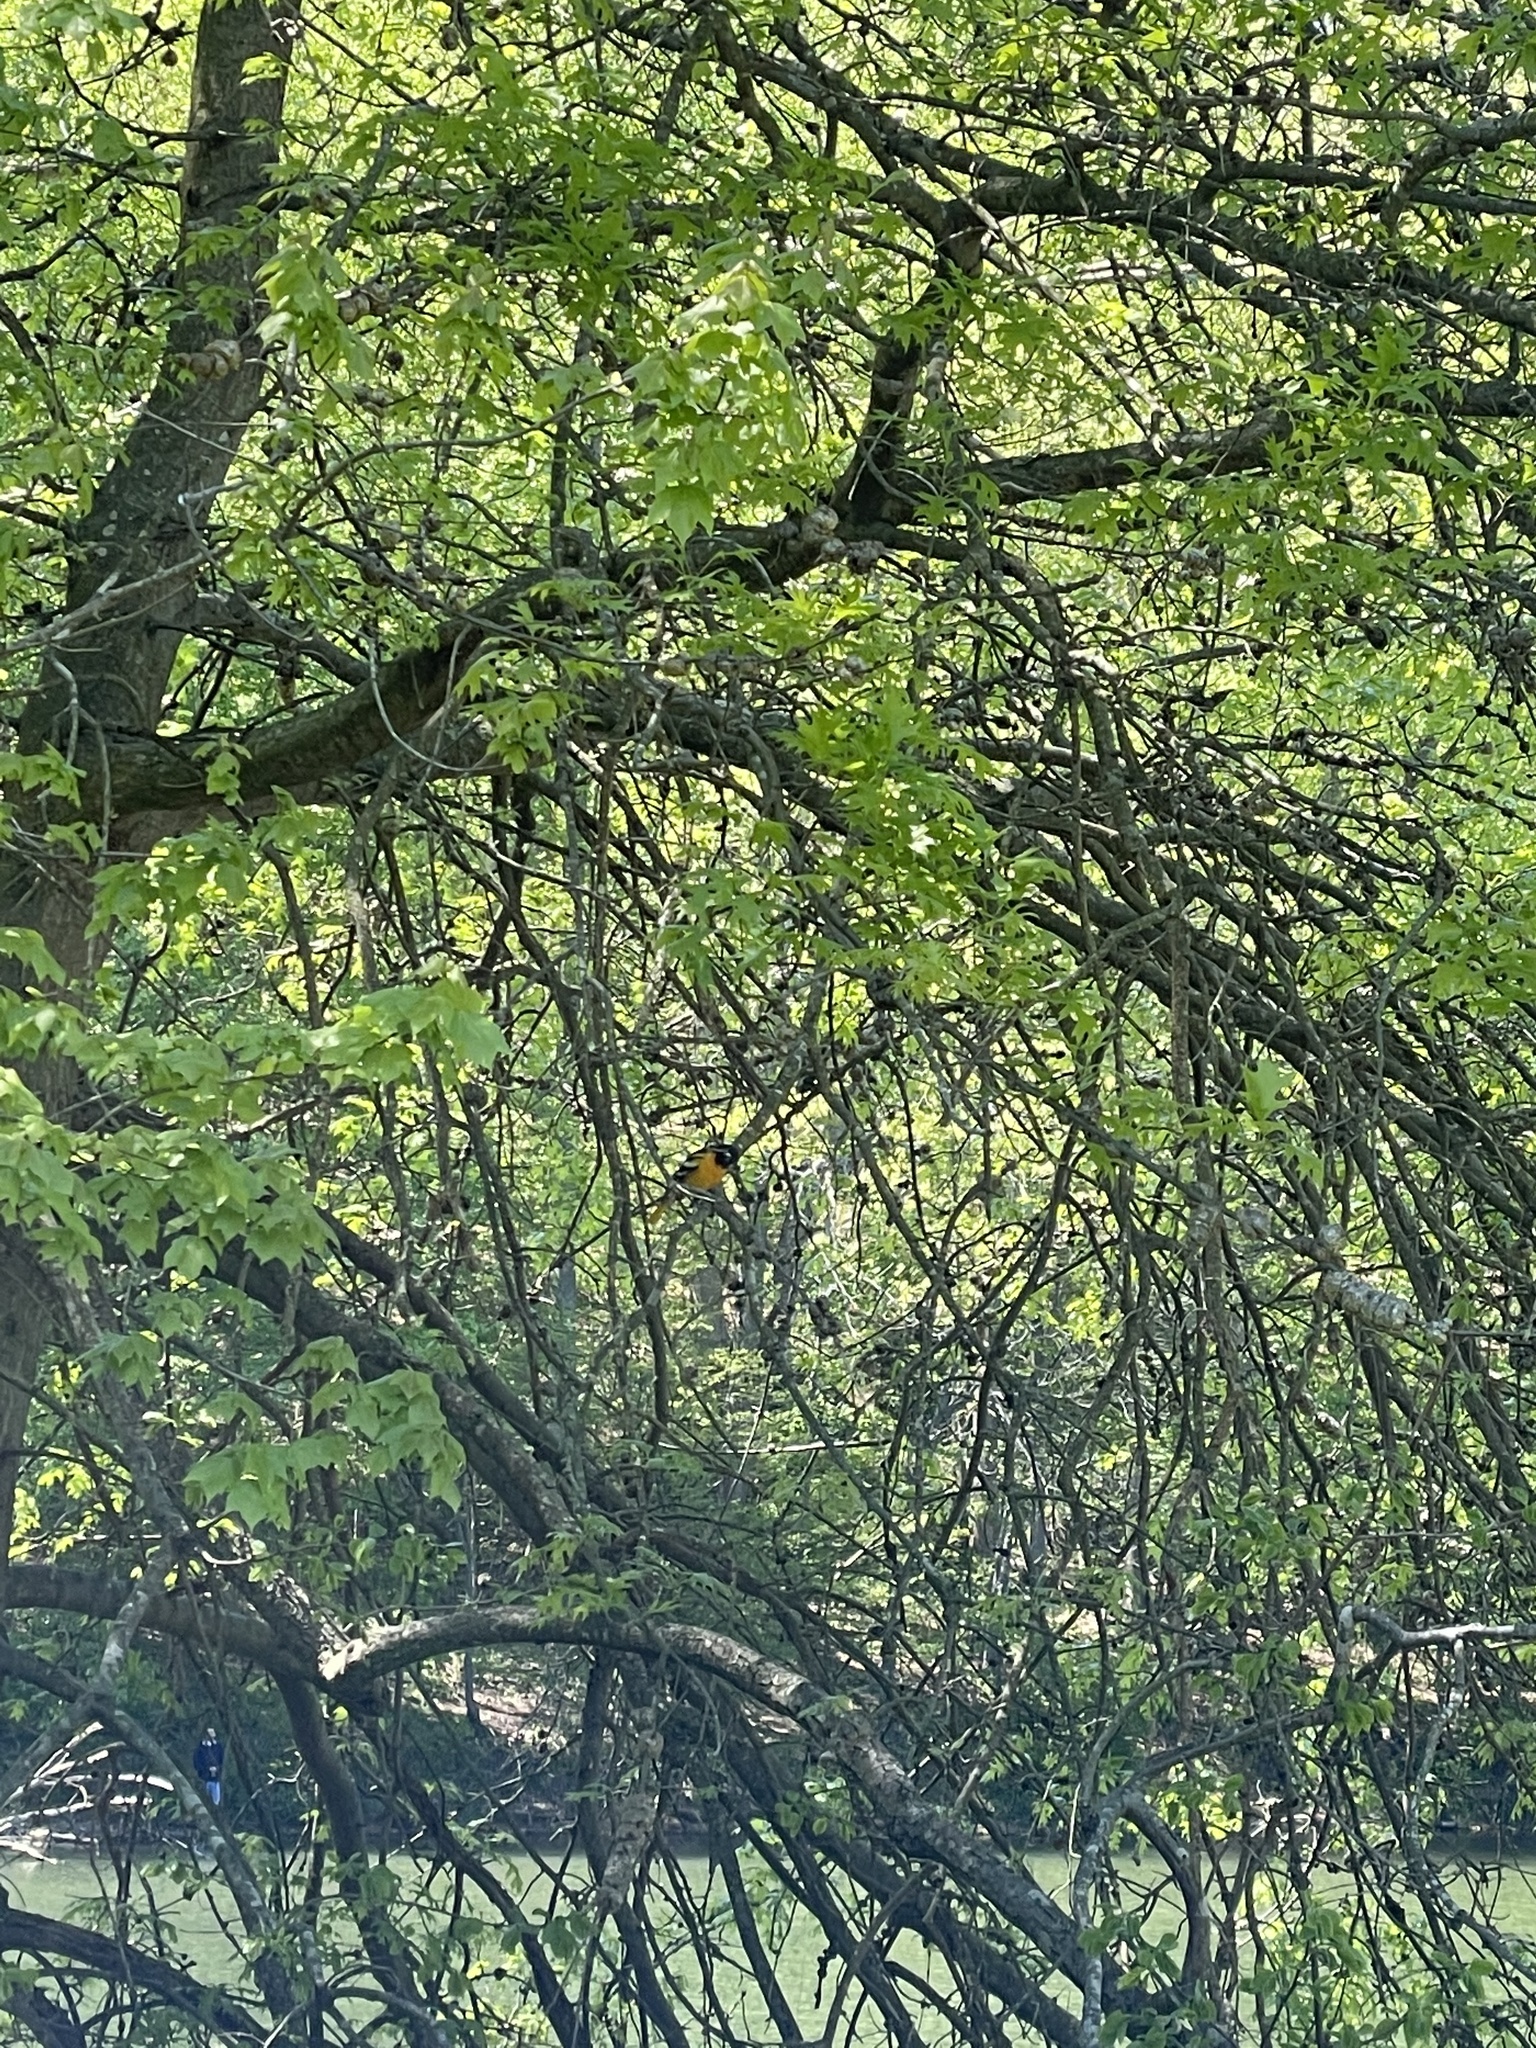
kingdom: Animalia
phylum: Chordata
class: Aves
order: Passeriformes
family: Icteridae
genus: Icterus
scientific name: Icterus galbula
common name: Baltimore oriole
